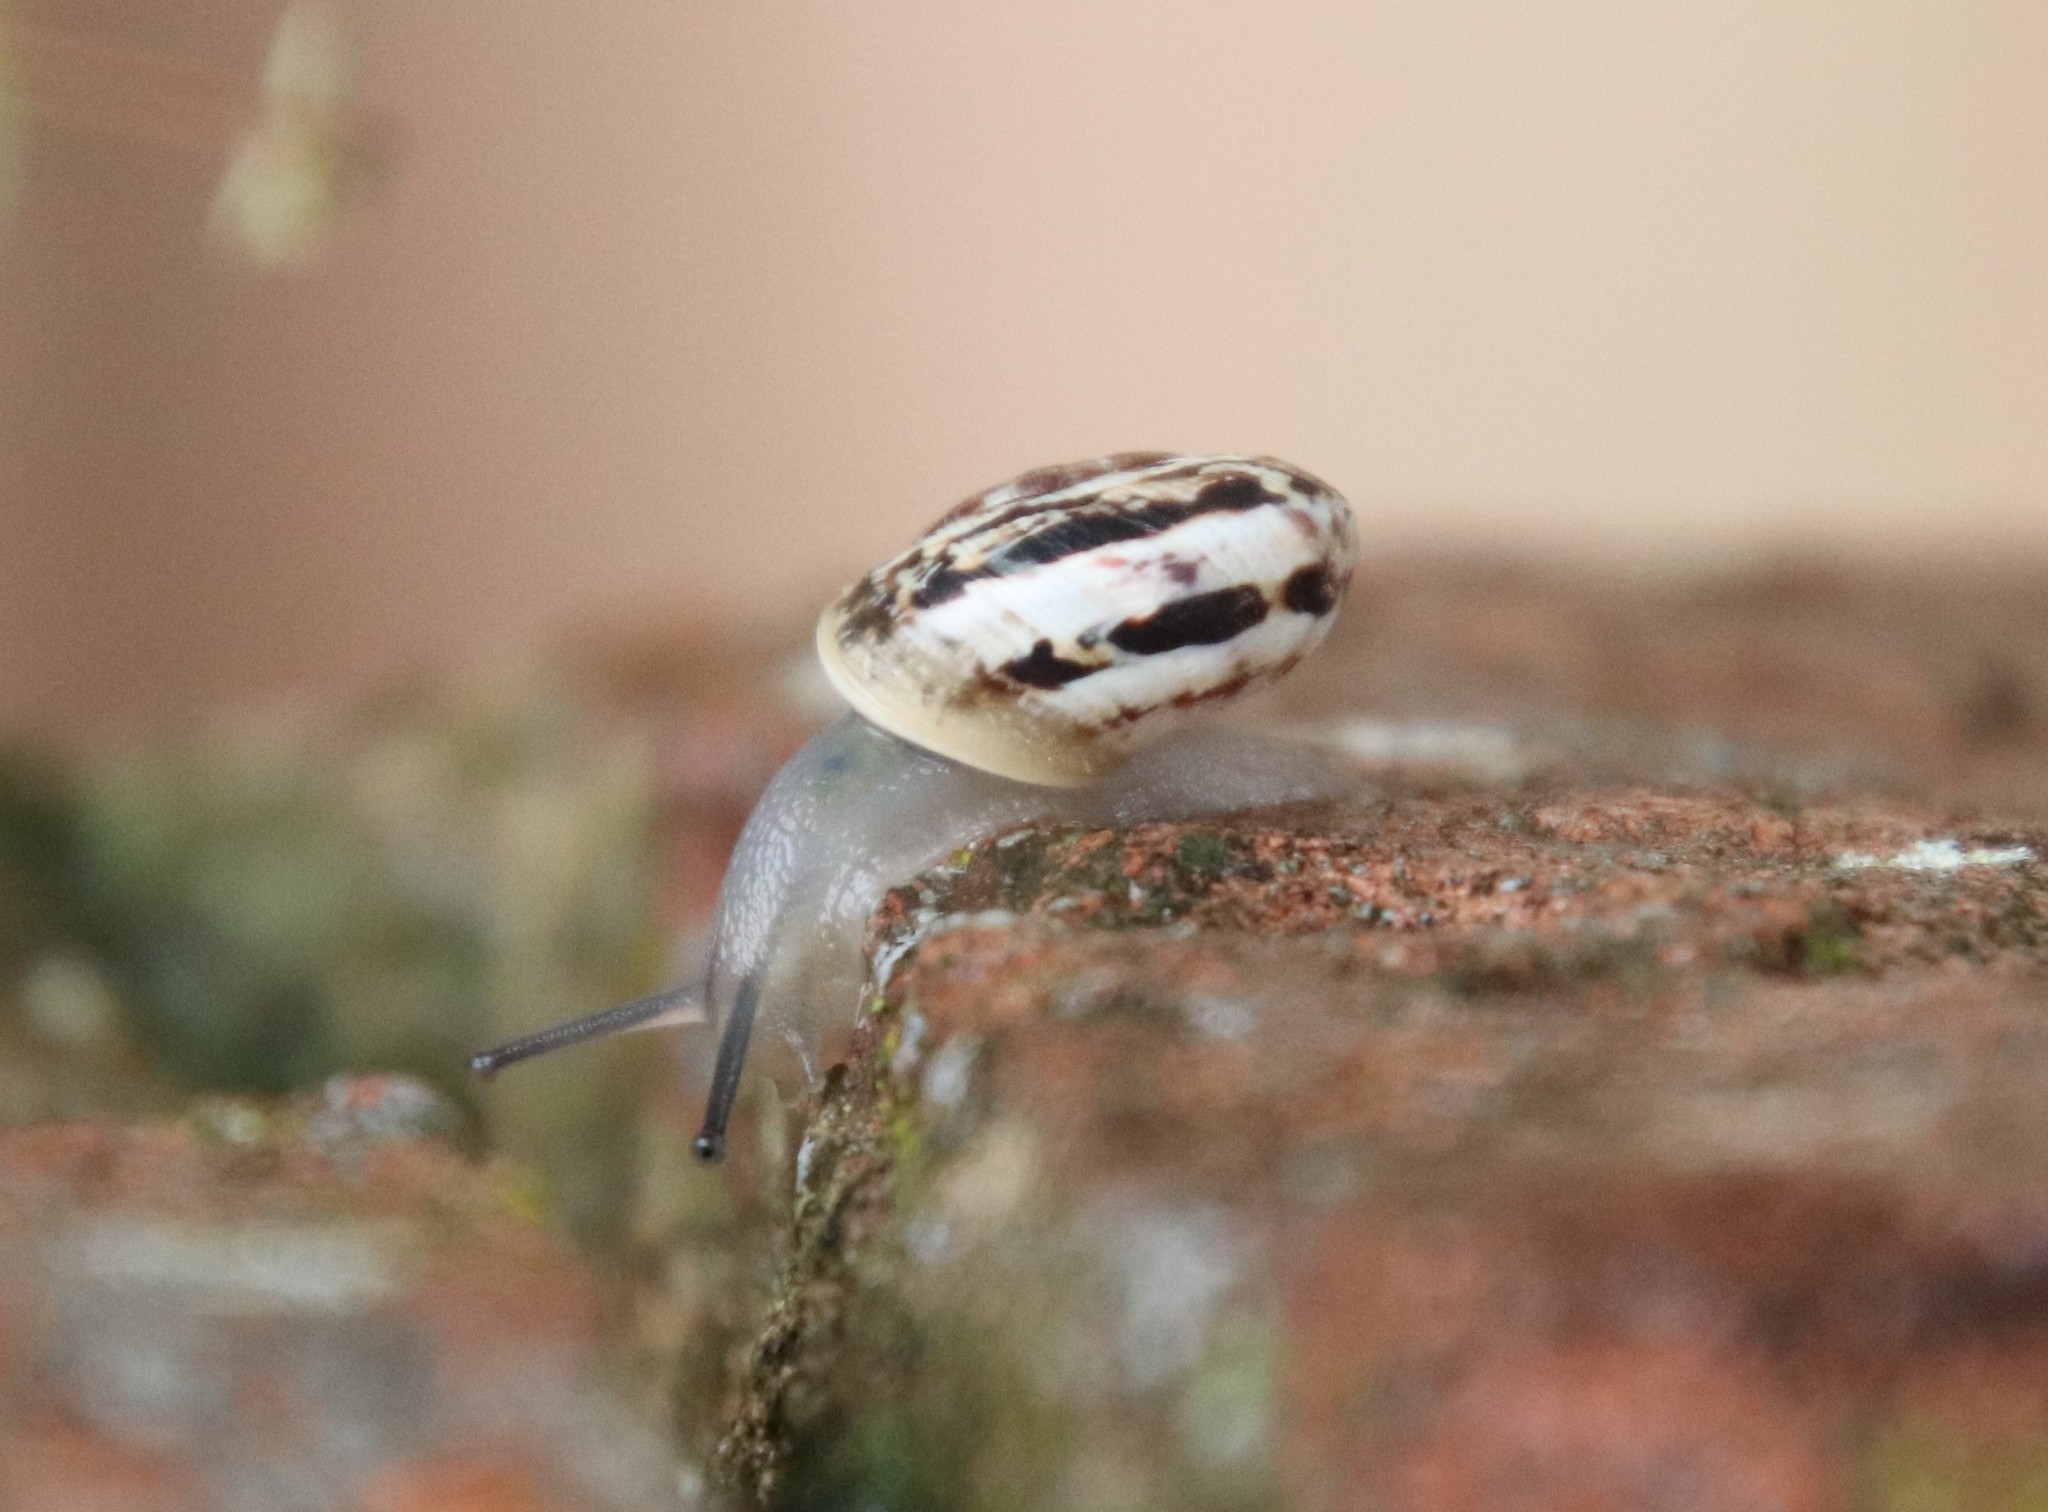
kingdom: Animalia
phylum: Mollusca
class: Gastropoda
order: Stylommatophora
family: Helicidae
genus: Marmorana
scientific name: Marmorana serpentina
